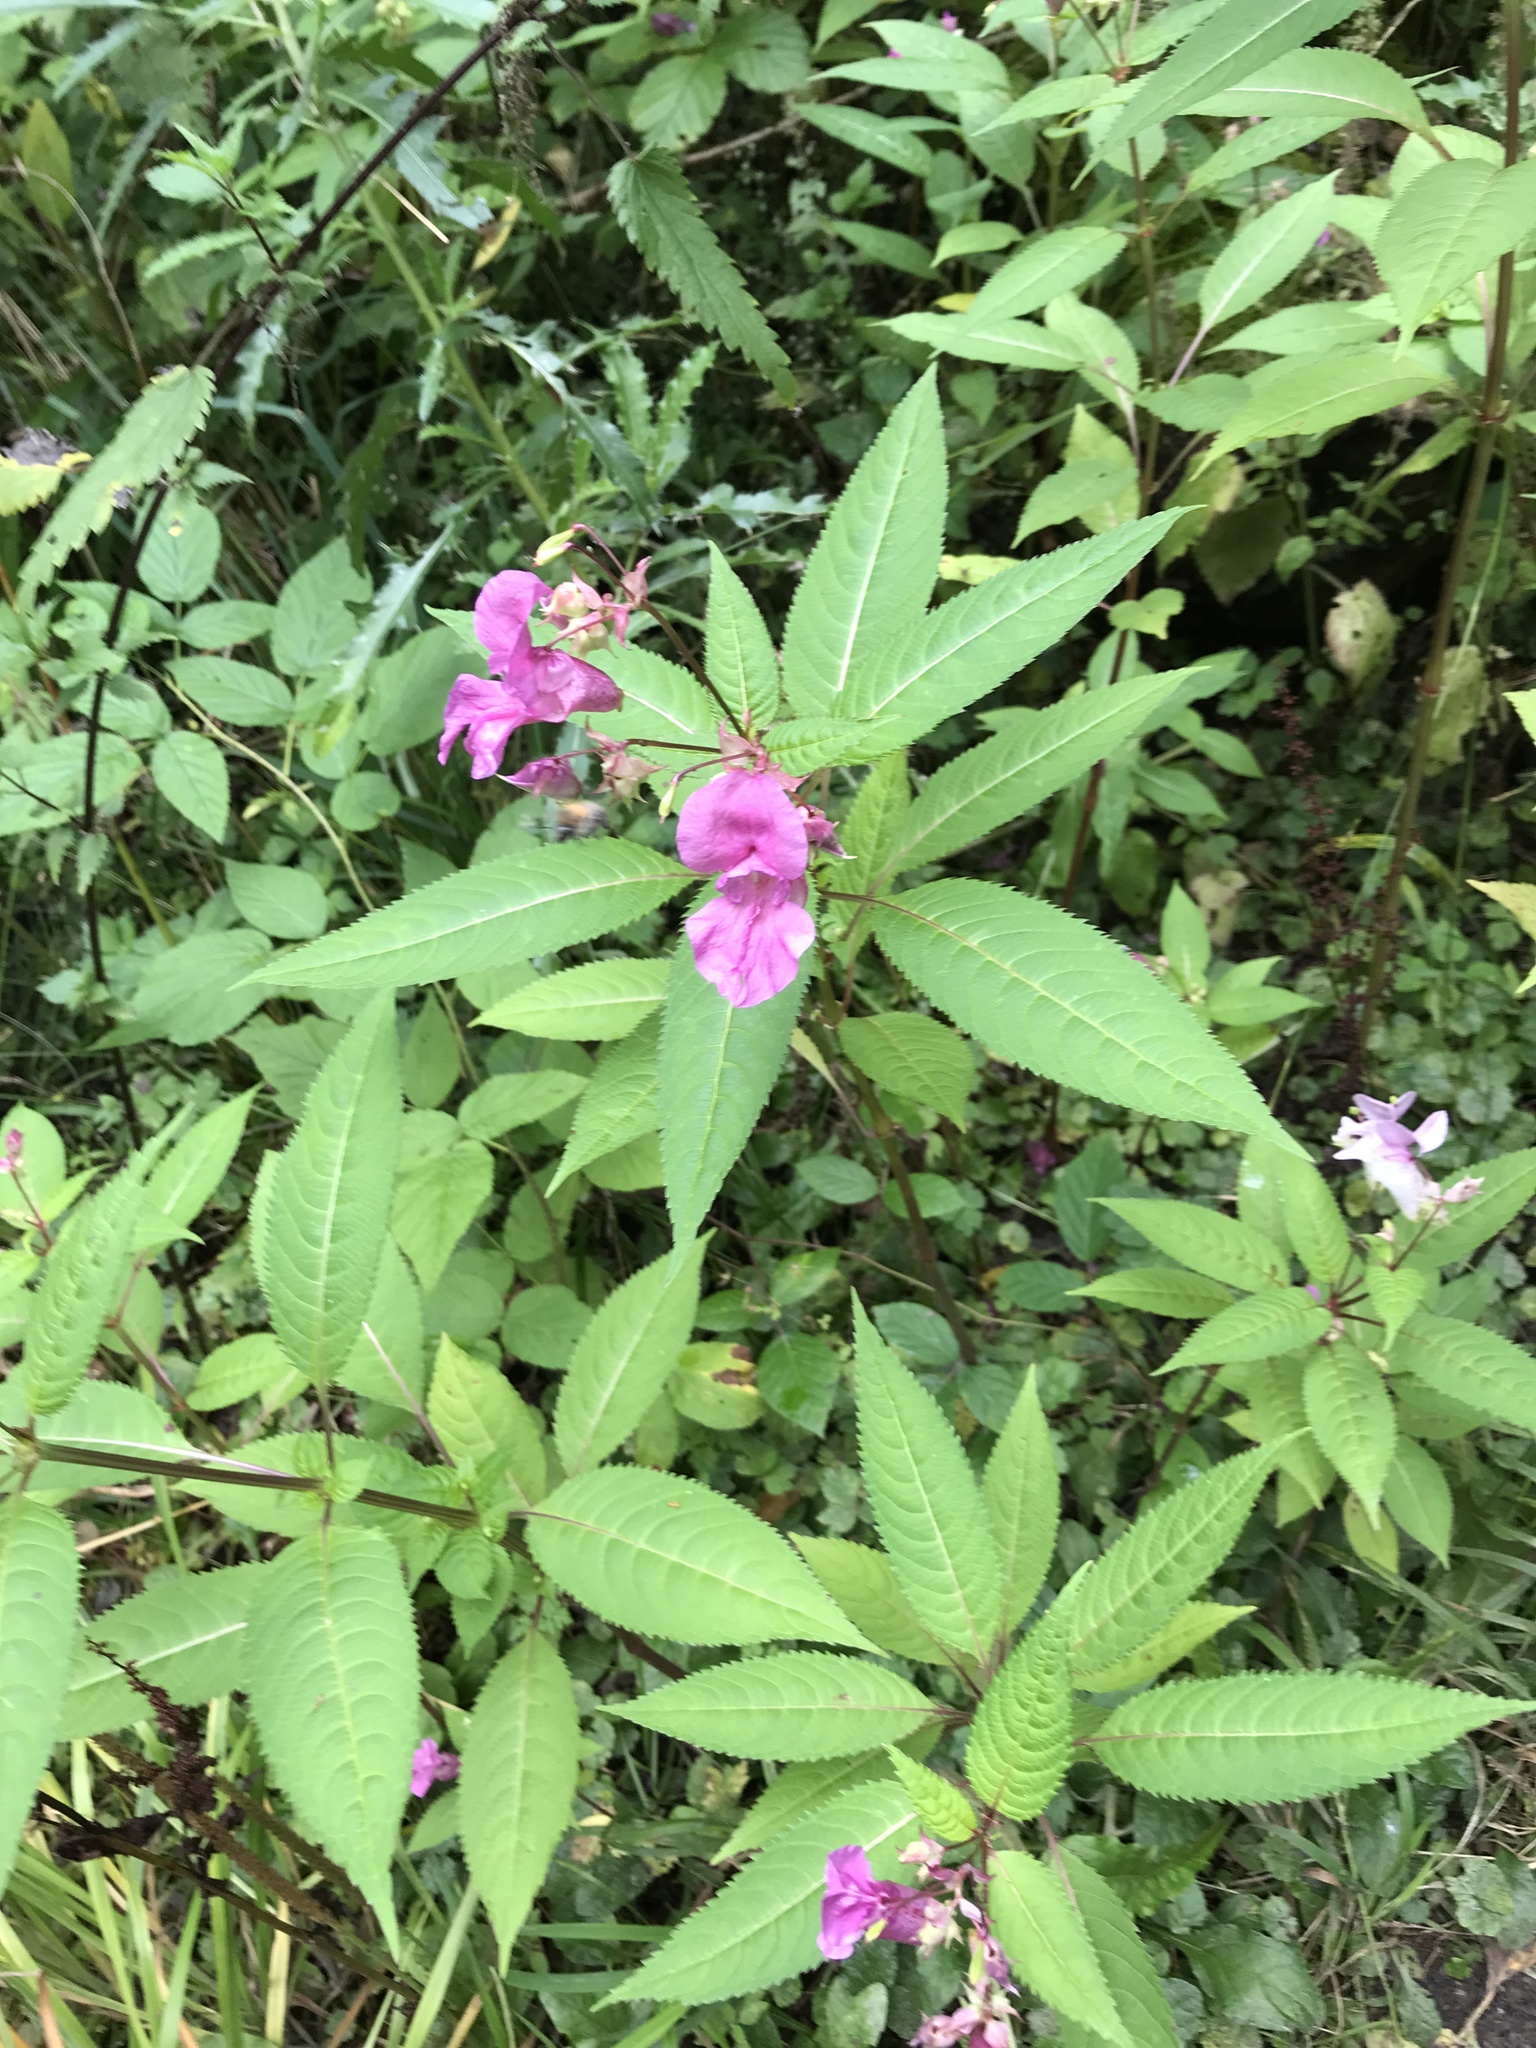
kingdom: Plantae
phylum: Tracheophyta
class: Magnoliopsida
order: Ericales
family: Balsaminaceae
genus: Impatiens
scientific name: Impatiens glandulifera
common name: Himalayan balsam
